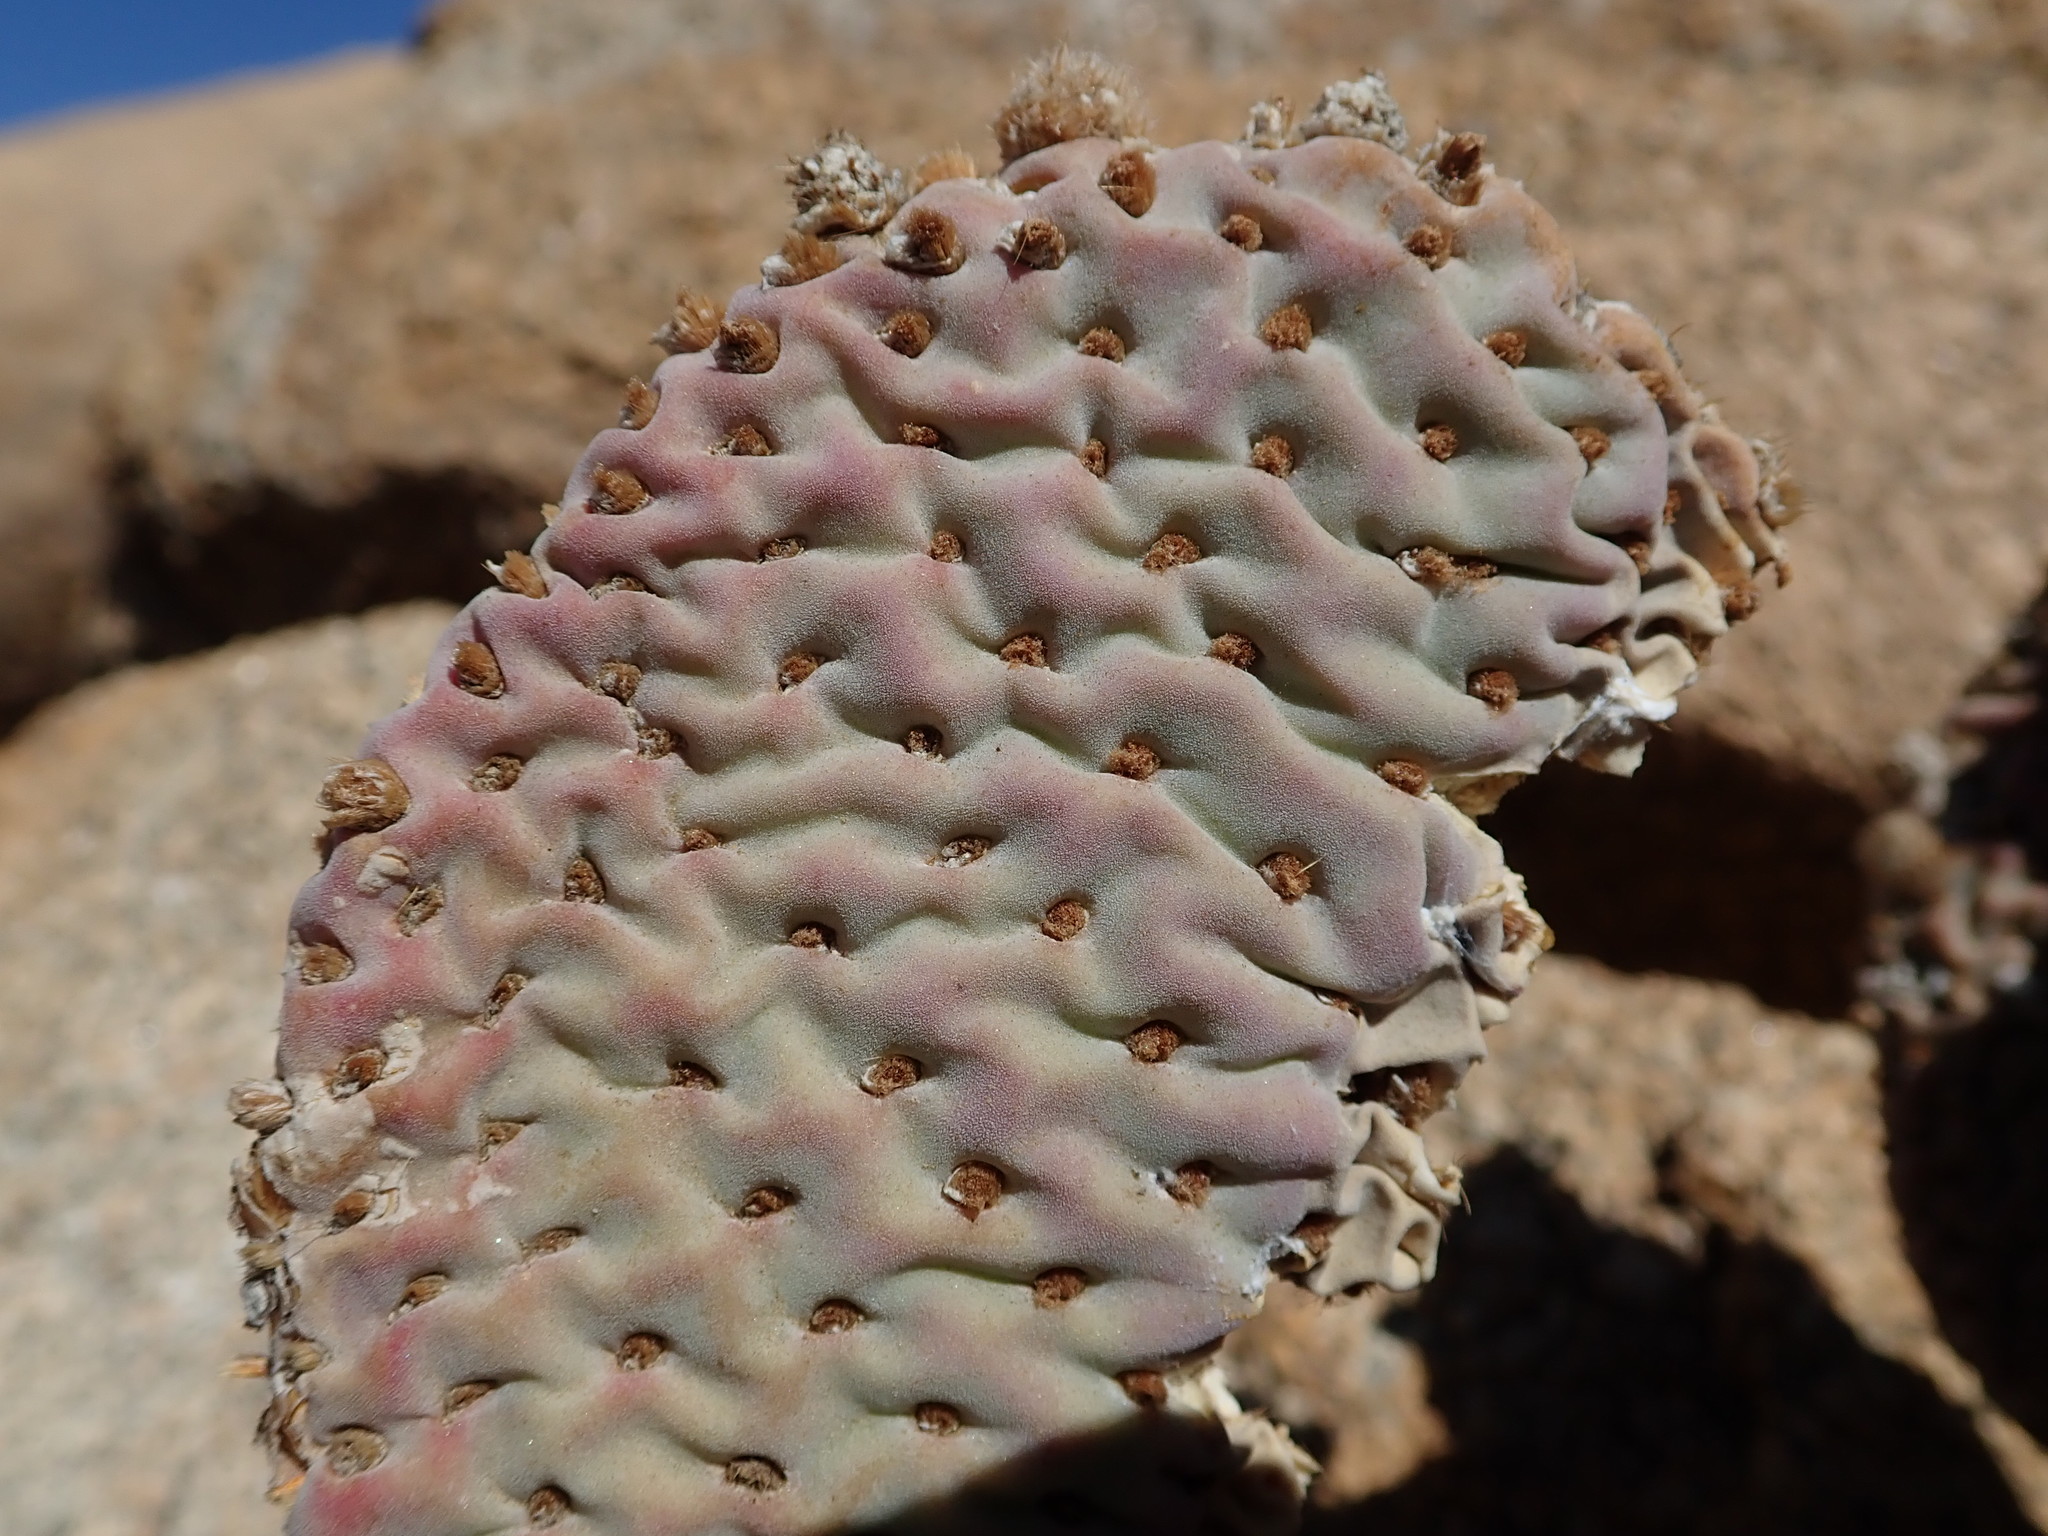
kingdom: Plantae
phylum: Tracheophyta
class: Magnoliopsida
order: Caryophyllales
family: Cactaceae
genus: Opuntia
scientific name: Opuntia basilaris
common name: Beavertail prickly-pear
